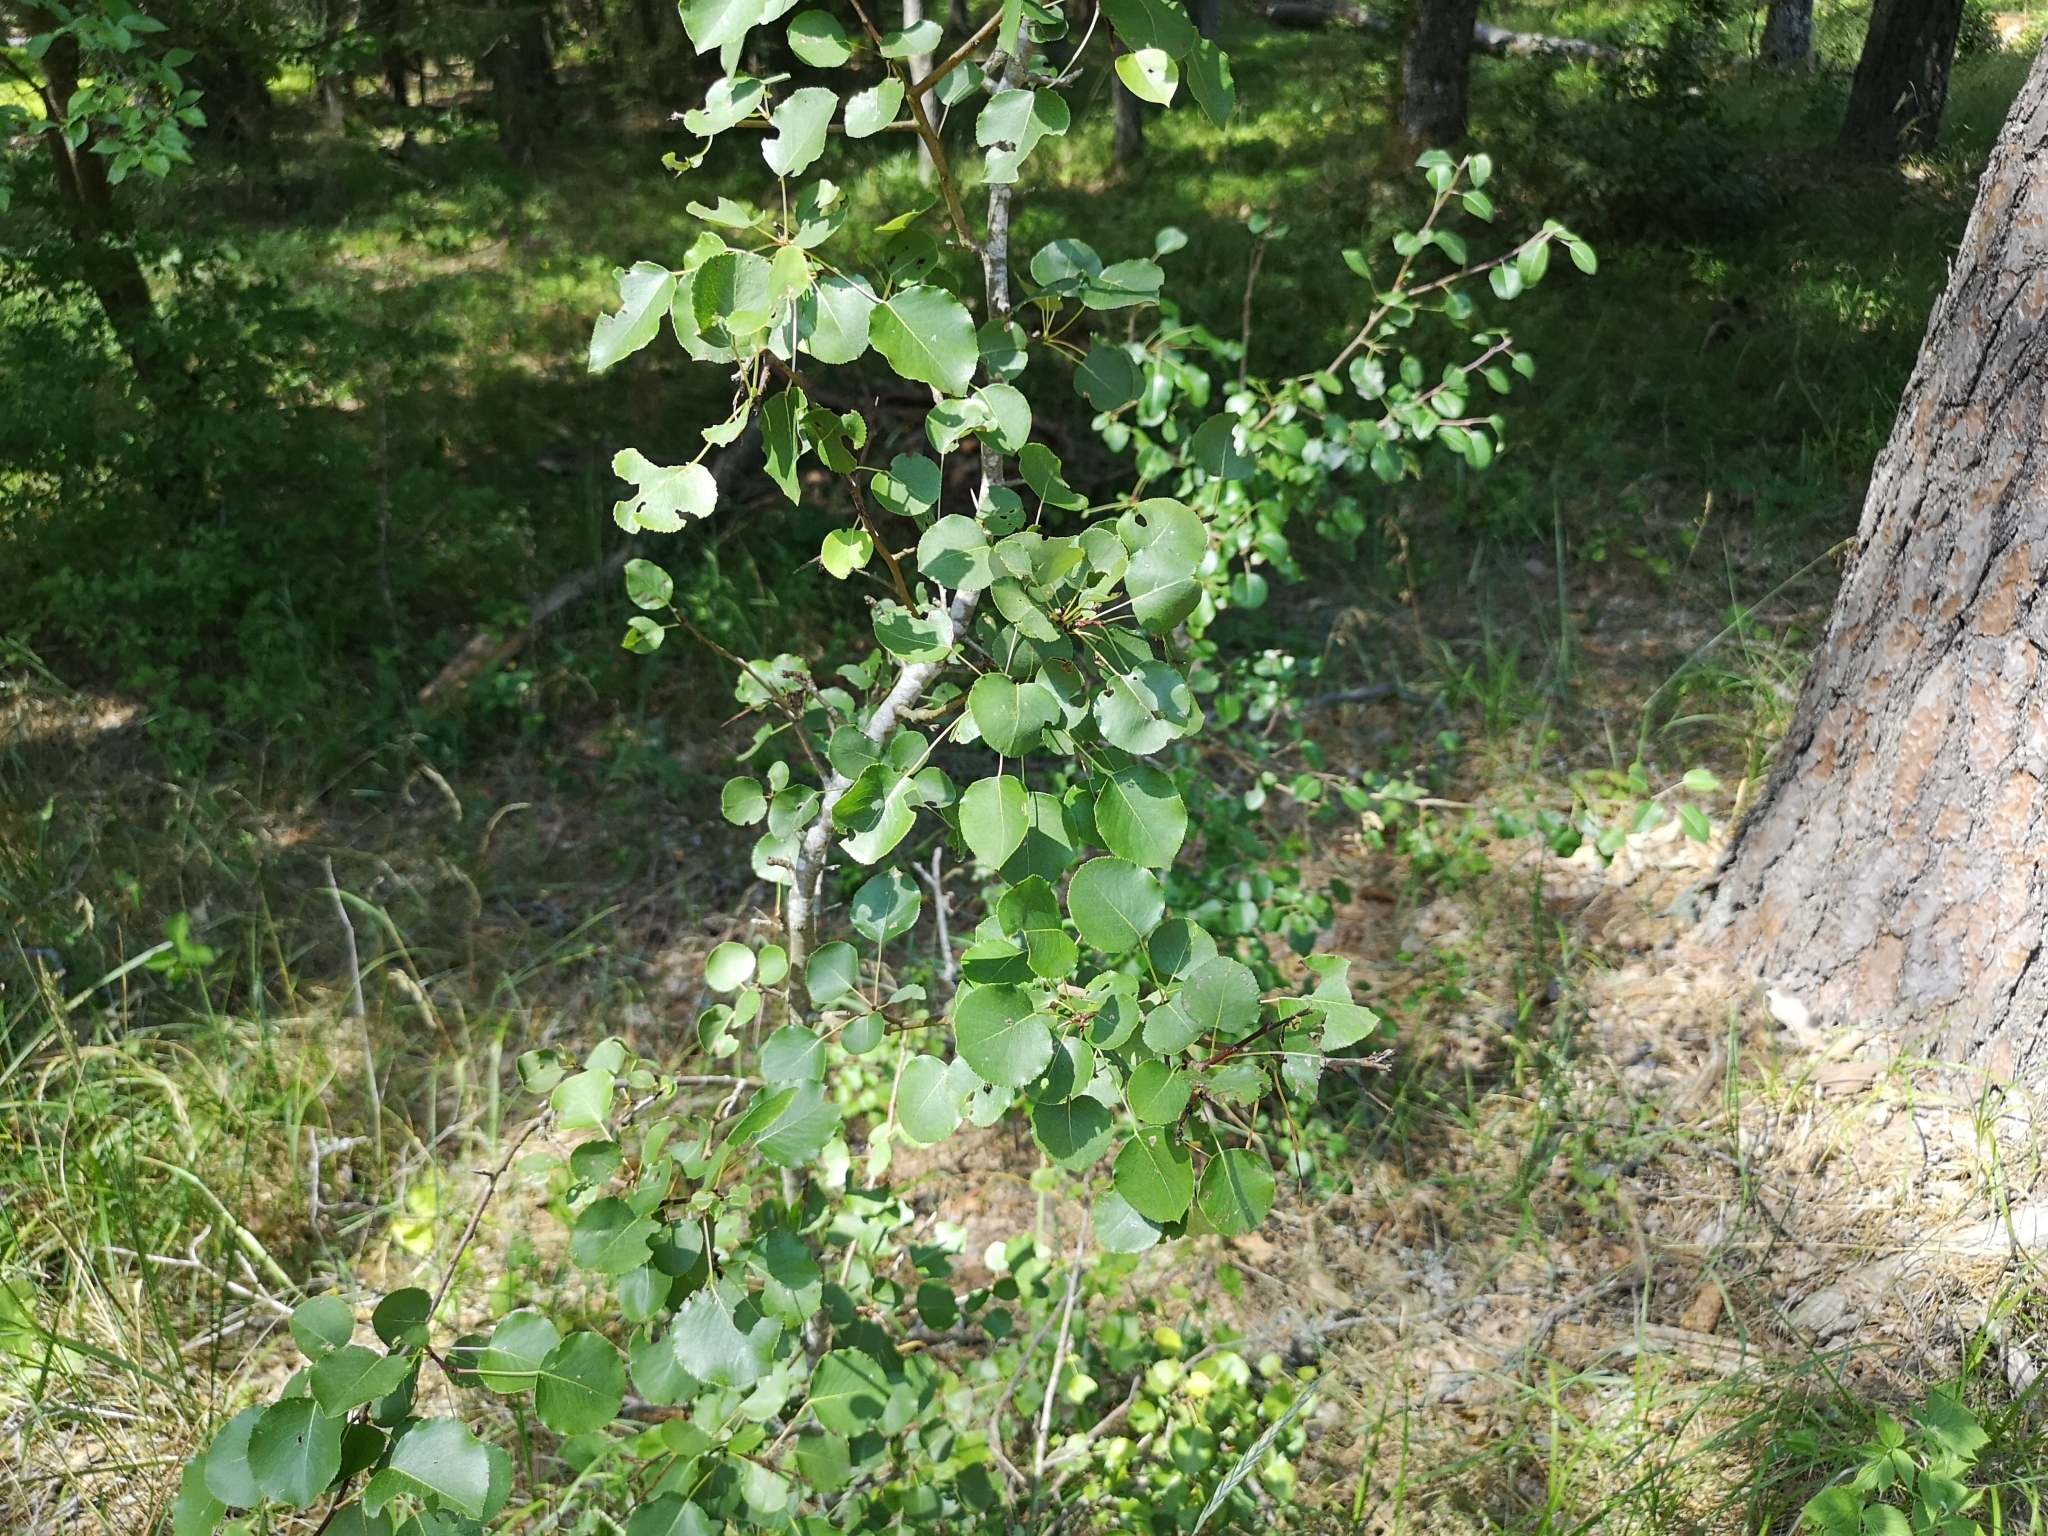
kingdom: Plantae
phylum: Tracheophyta
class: Magnoliopsida
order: Rosales
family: Rosaceae
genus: Pyrus
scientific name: Pyrus communis
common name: Pear
